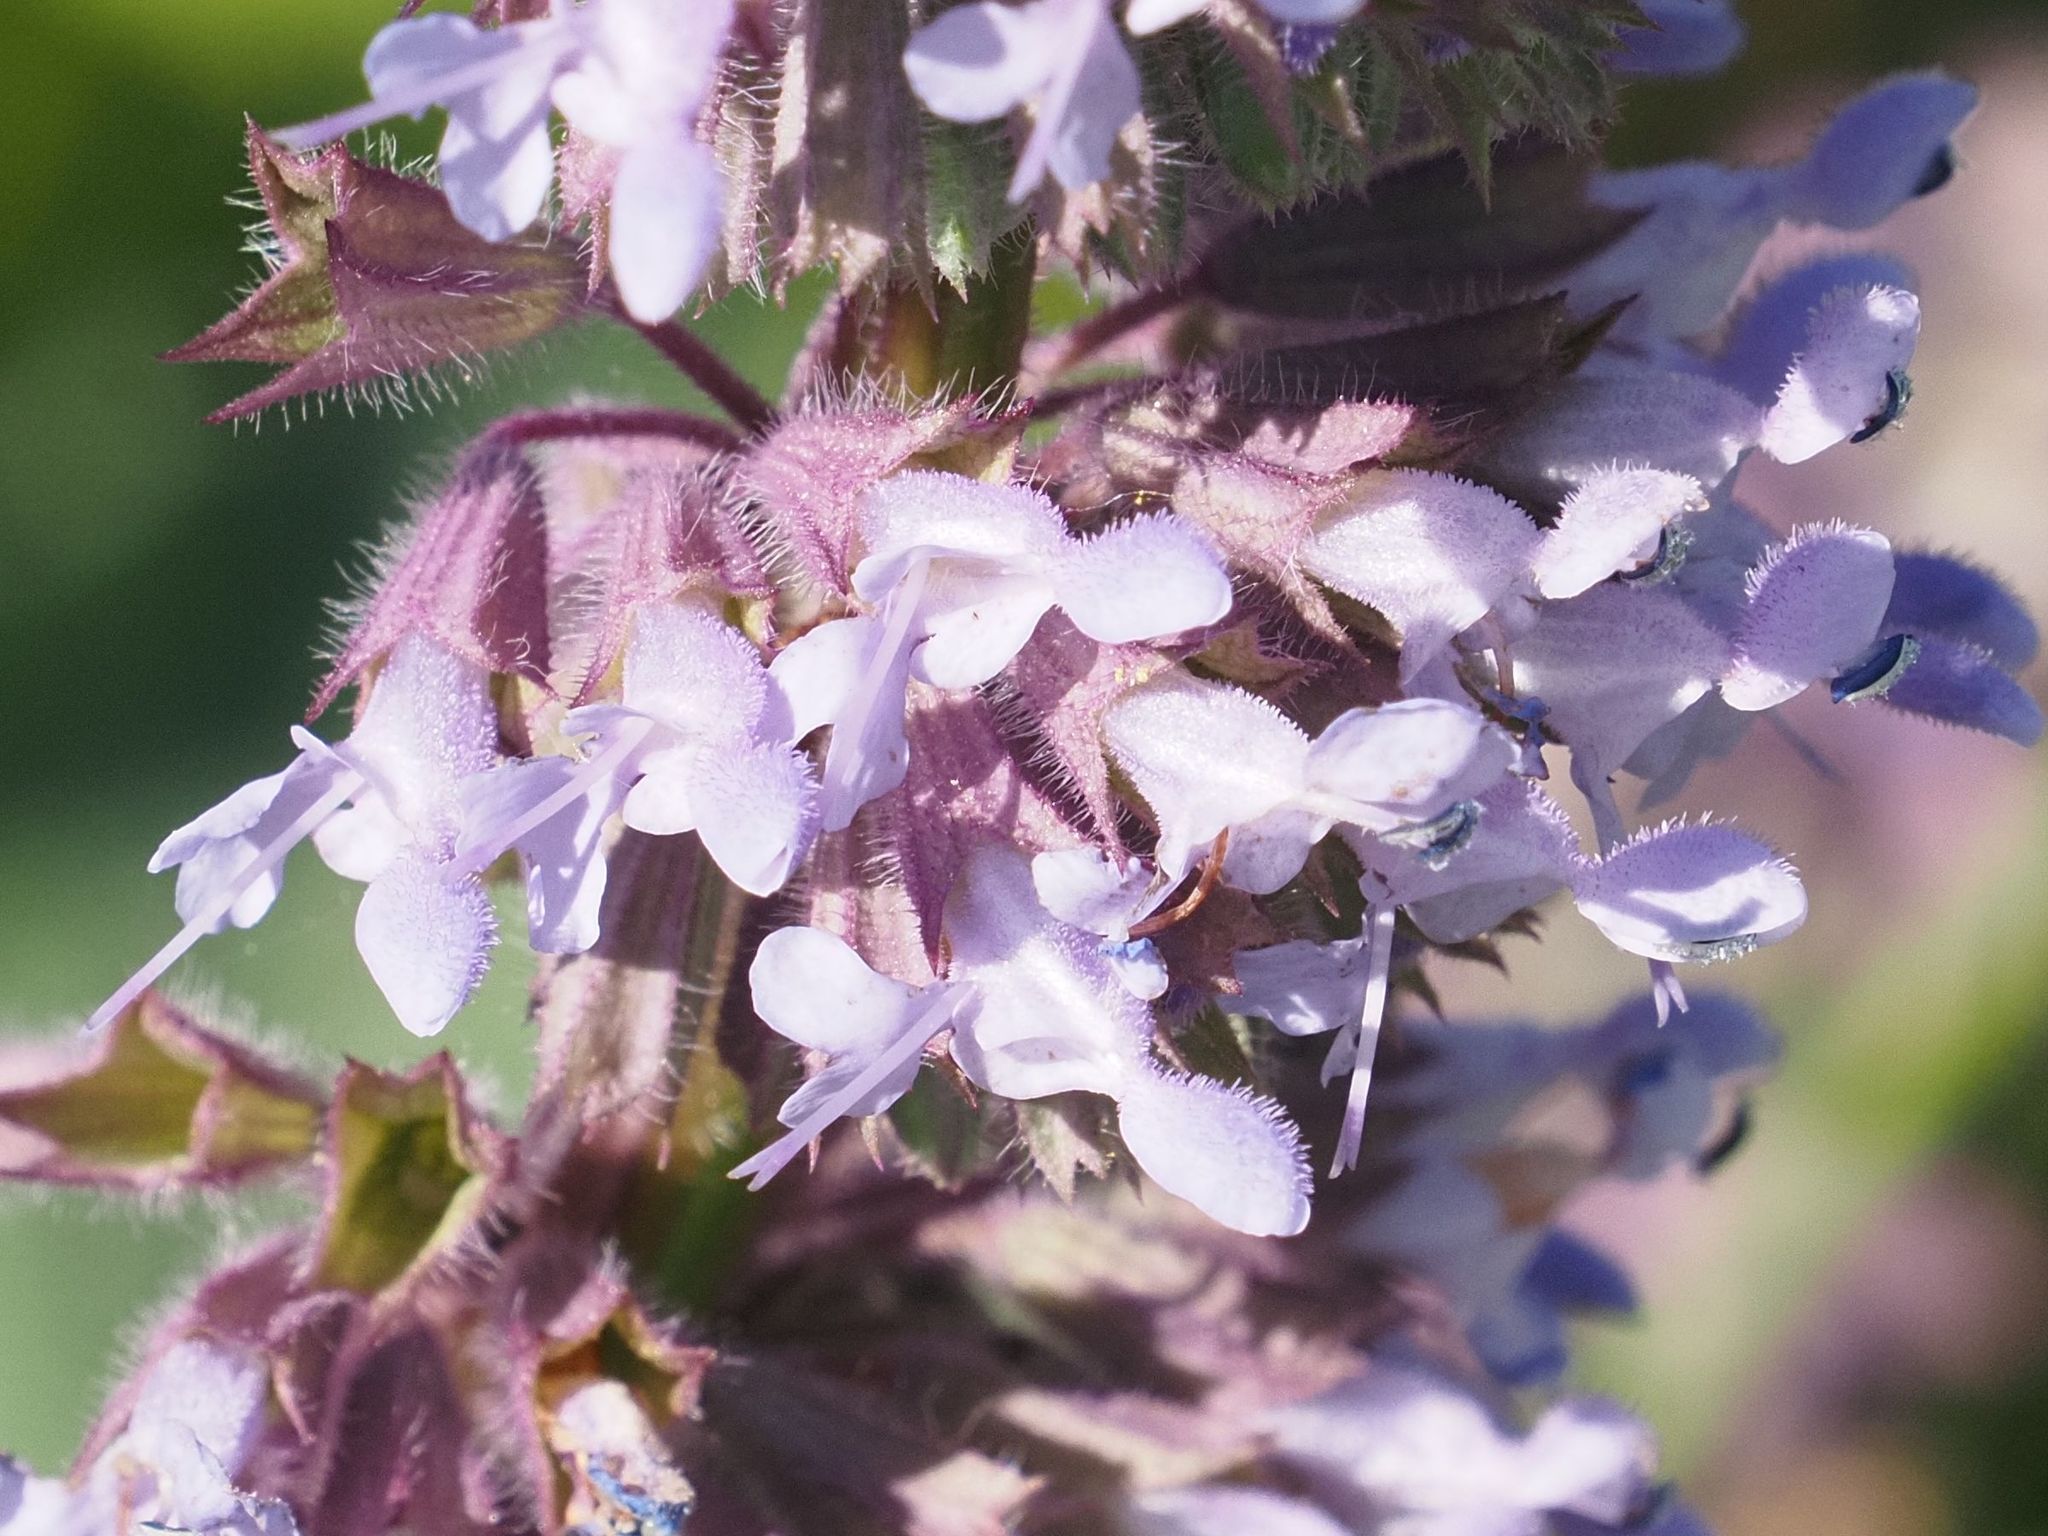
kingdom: Plantae
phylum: Tracheophyta
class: Magnoliopsida
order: Lamiales
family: Lamiaceae
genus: Salvia
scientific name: Salvia verticillata
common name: Whorled clary
